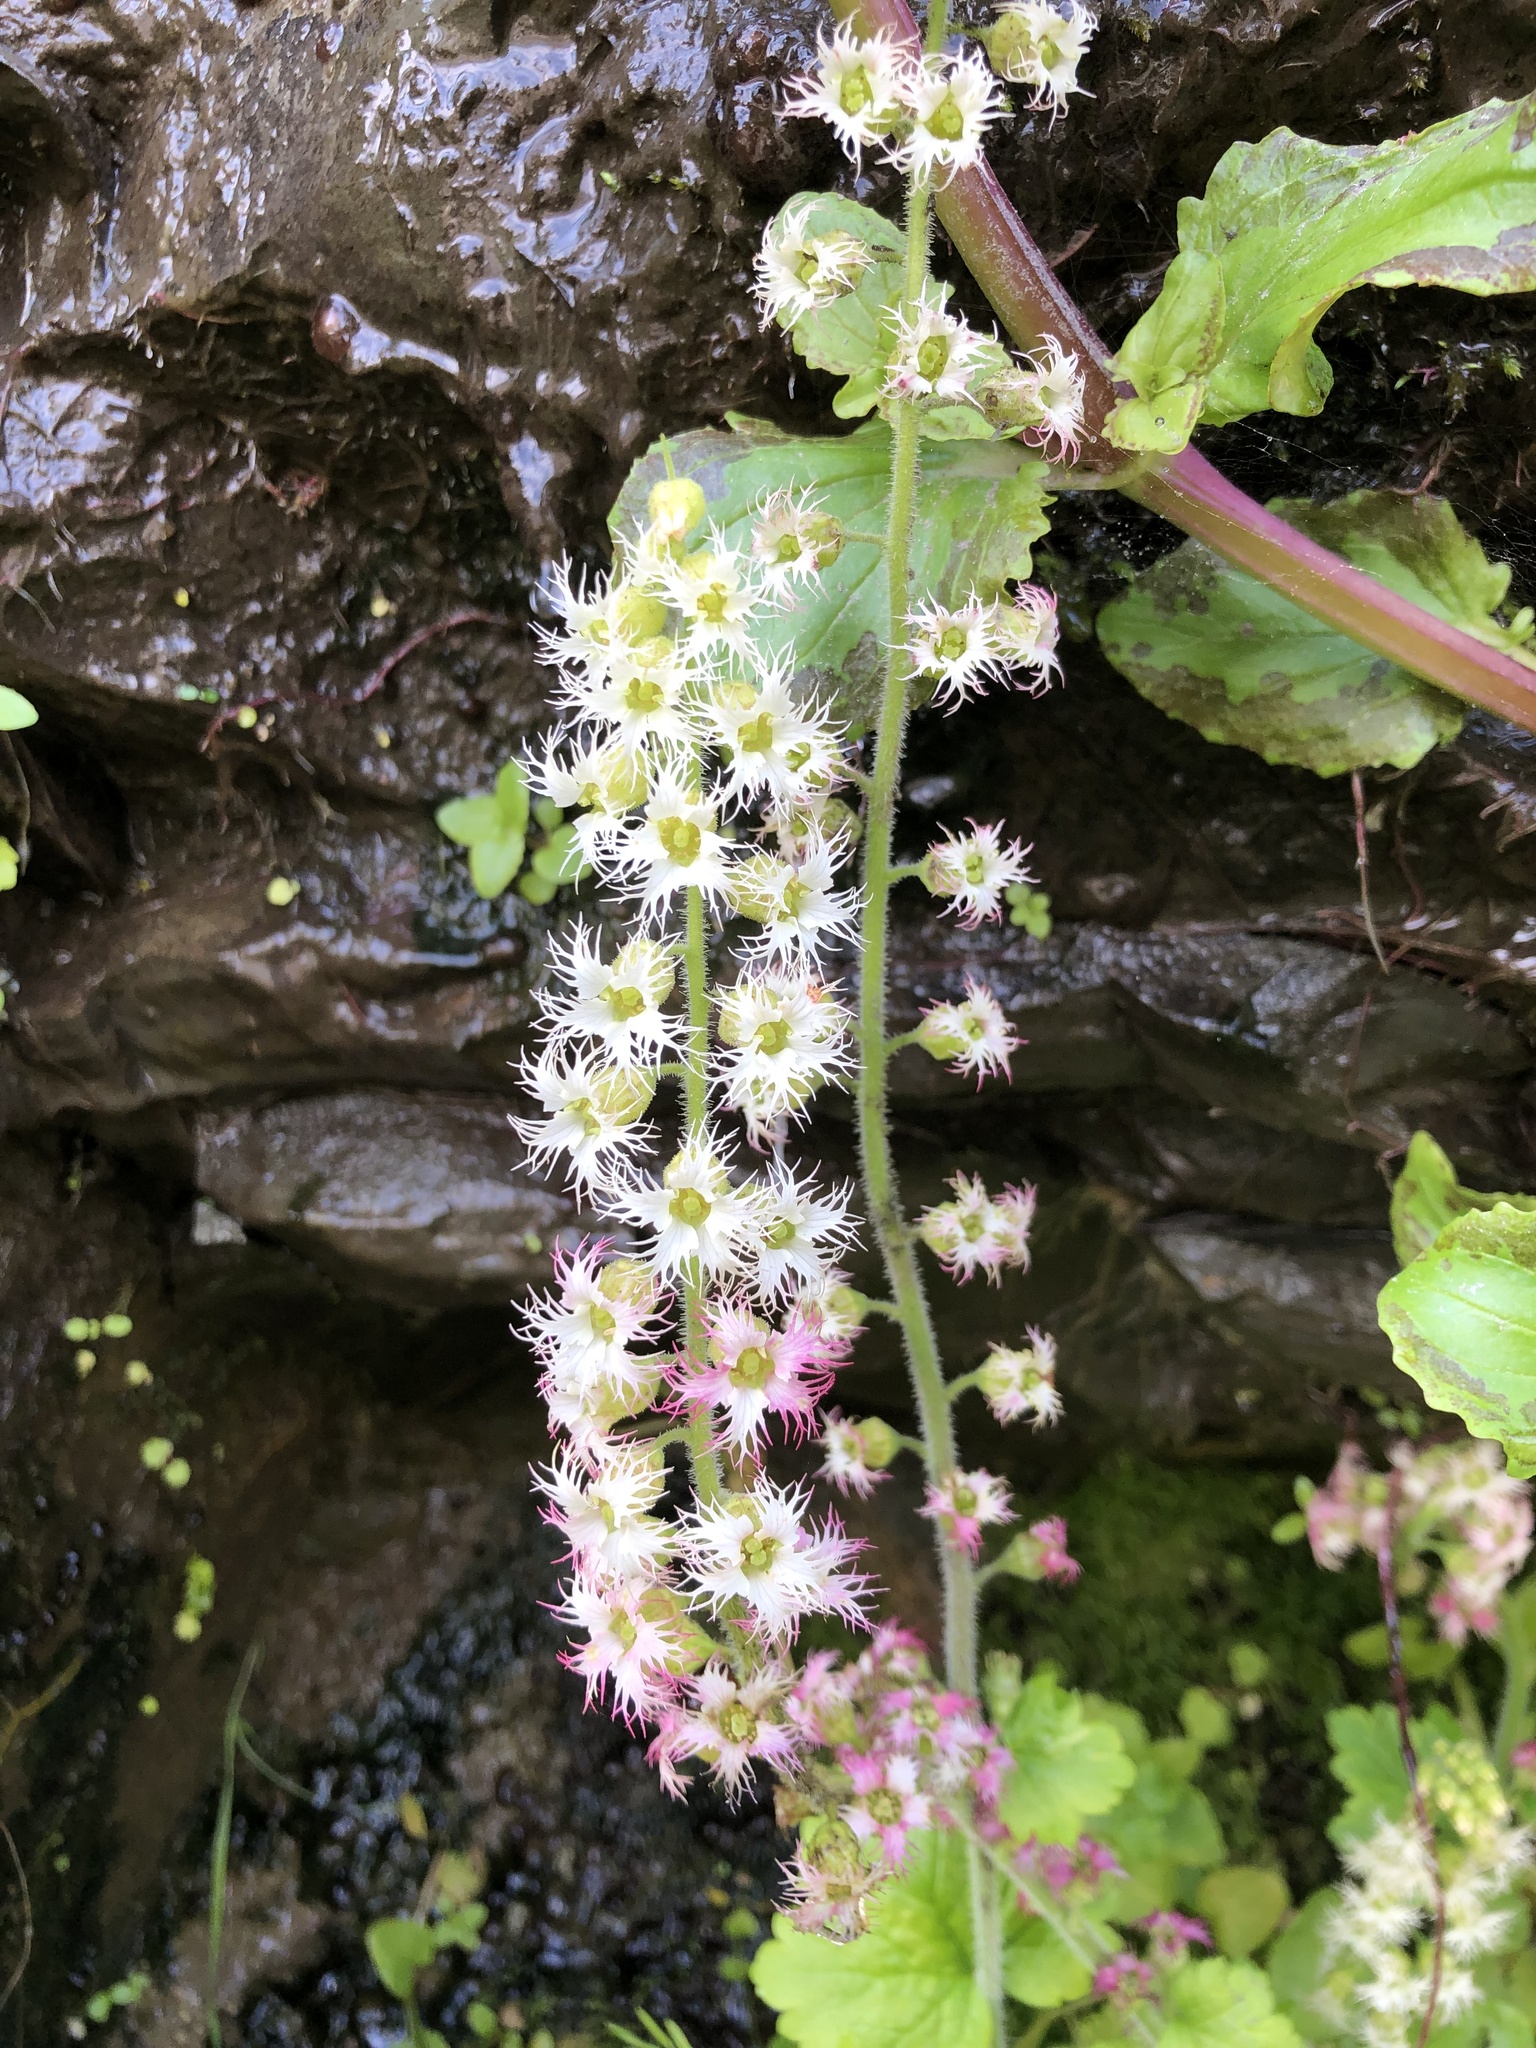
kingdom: Plantae
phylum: Tracheophyta
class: Magnoliopsida
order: Saxifragales
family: Saxifragaceae
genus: Tellima
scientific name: Tellima grandiflora
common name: Fringecups
